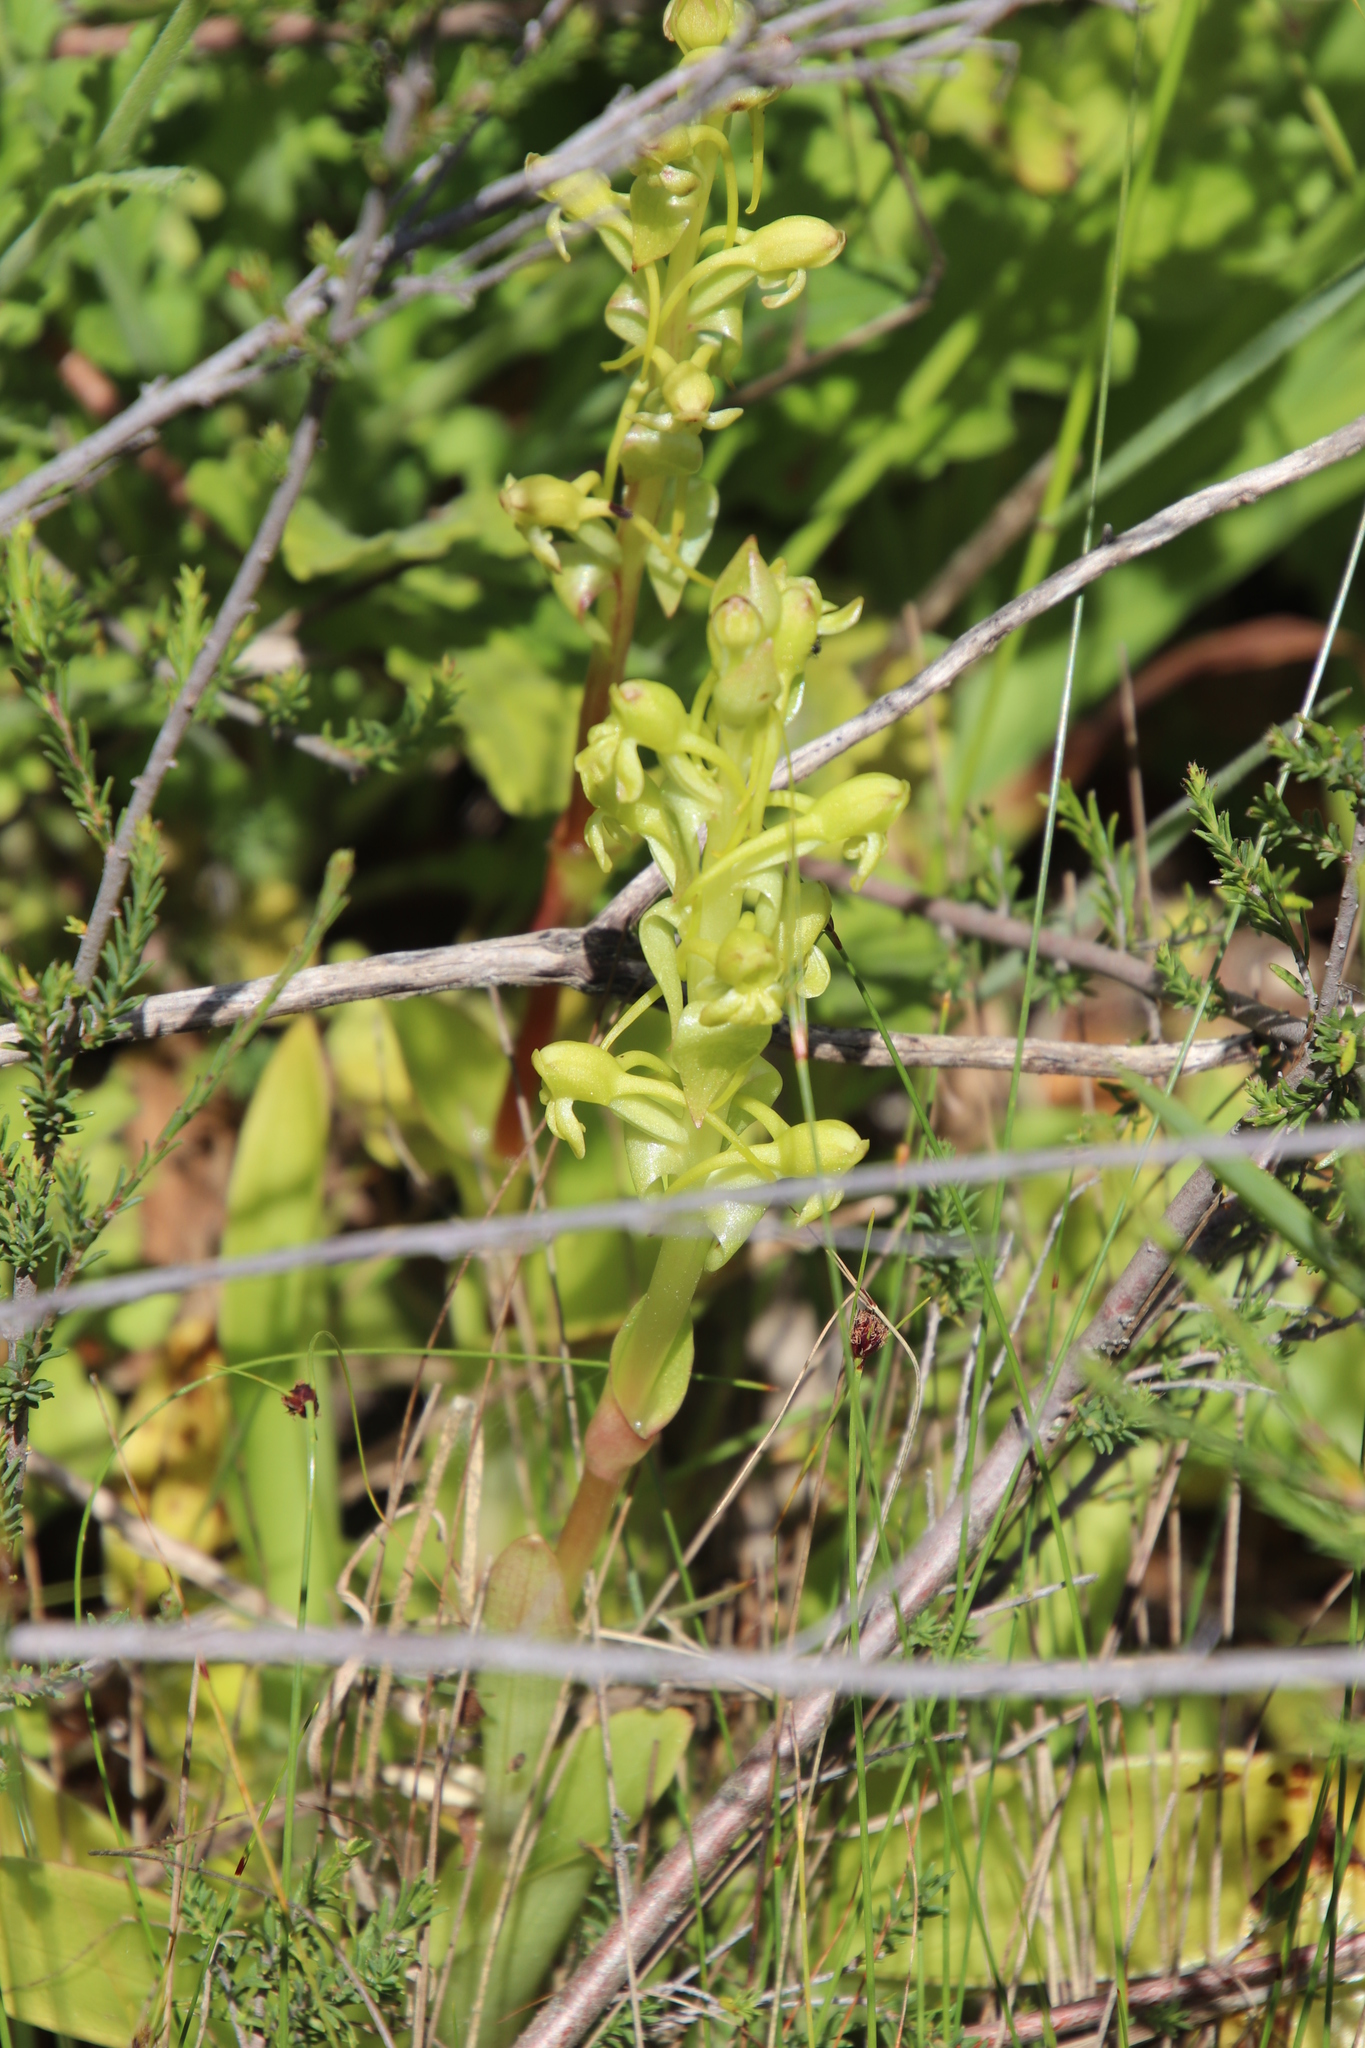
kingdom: Plantae
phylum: Tracheophyta
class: Liliopsida
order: Asparagales
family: Orchidaceae
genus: Satyrium
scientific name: Satyrium odorum
